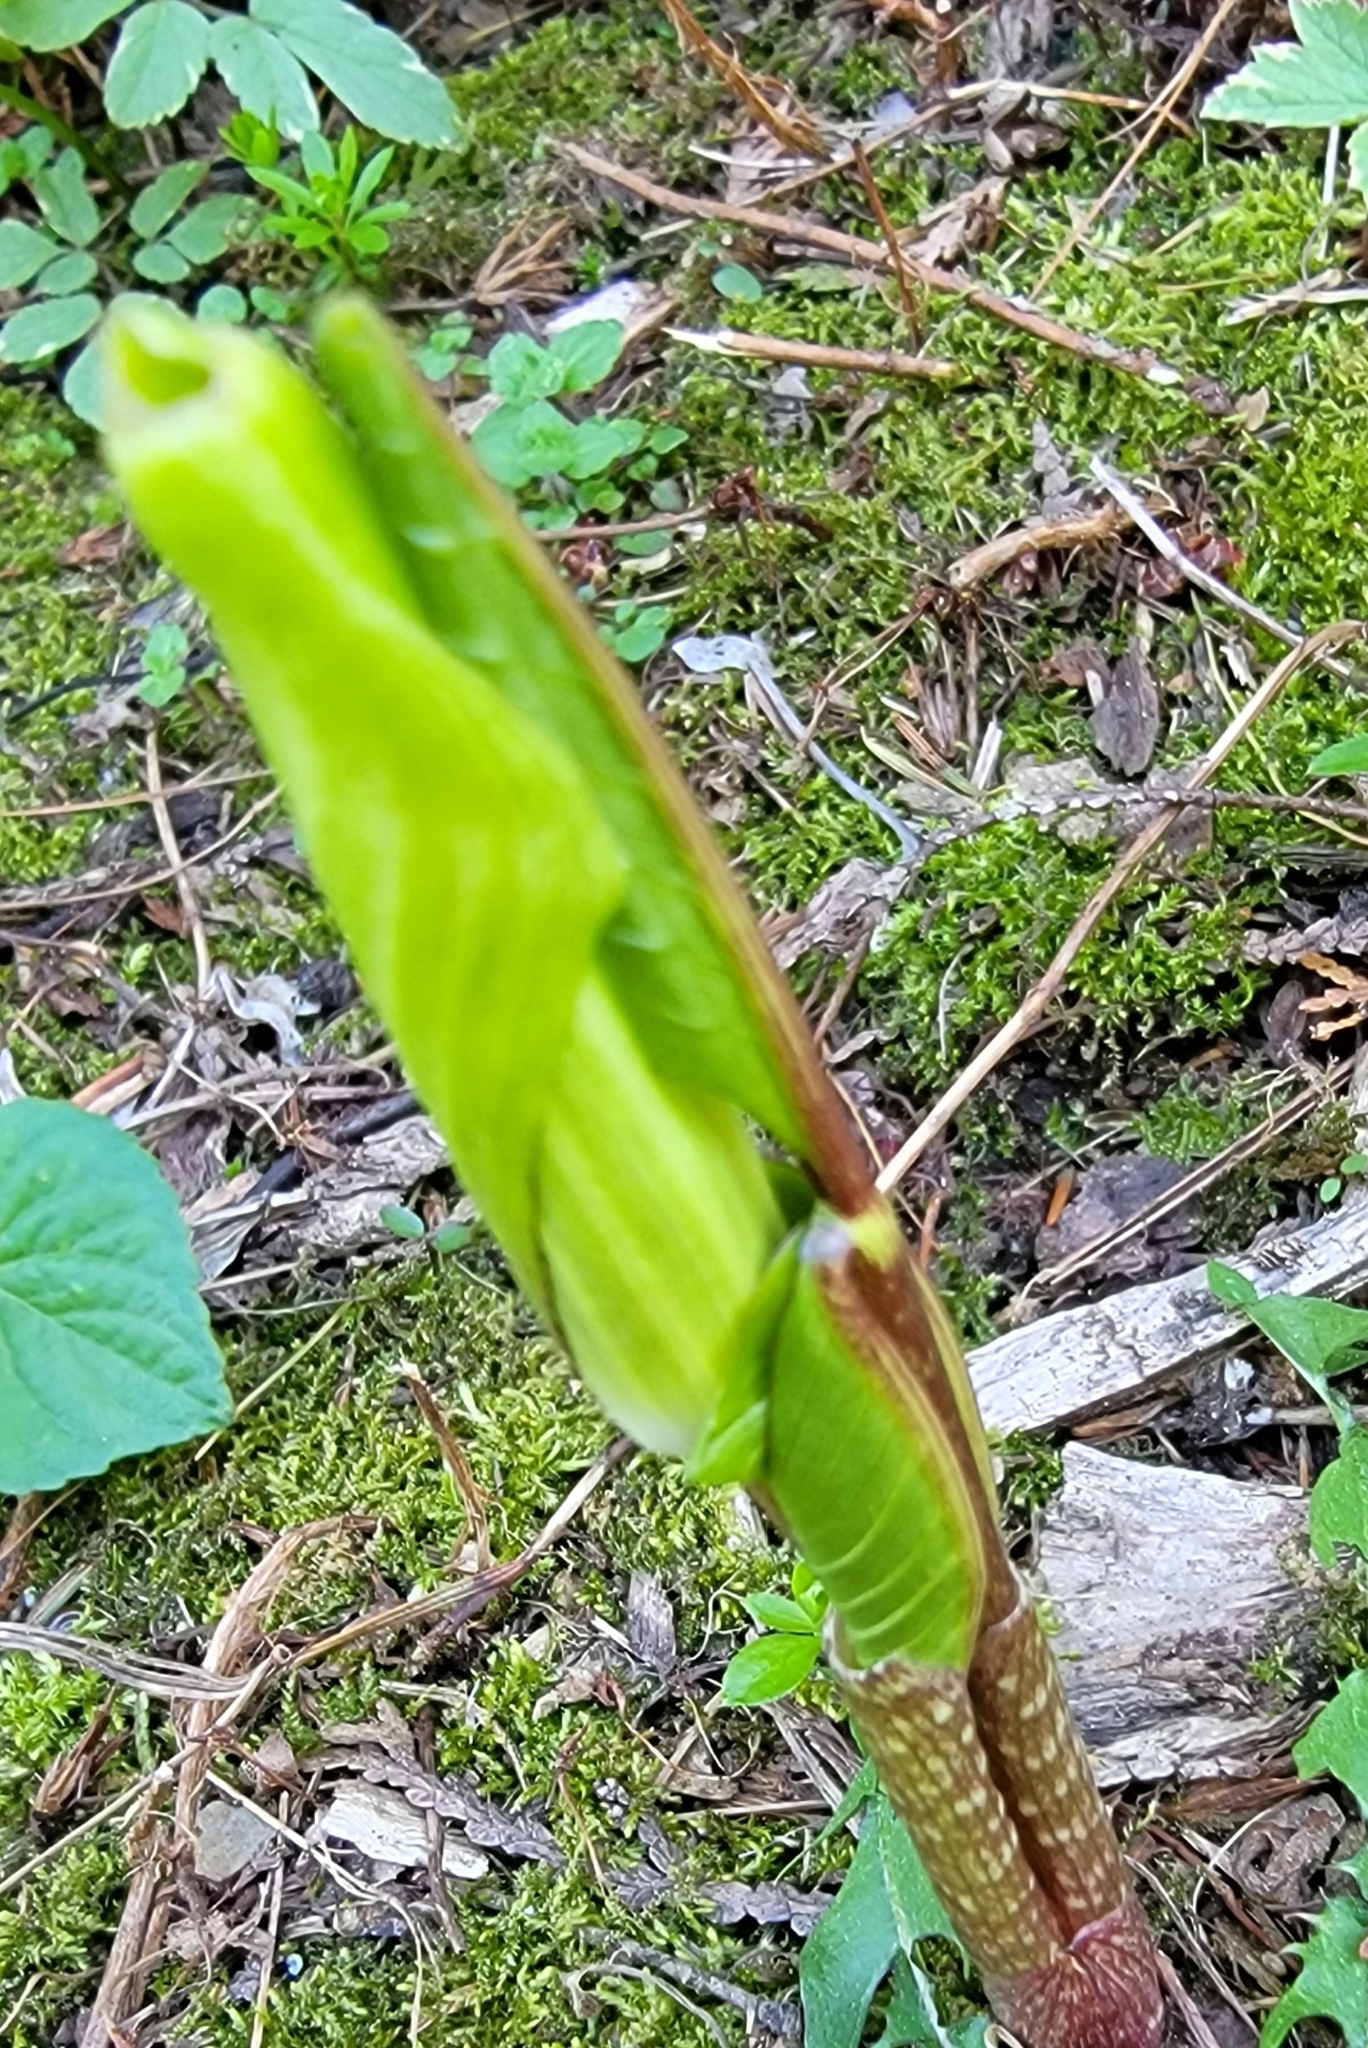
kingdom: Plantae
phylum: Tracheophyta
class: Liliopsida
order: Alismatales
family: Araceae
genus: Arisaema
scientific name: Arisaema triphyllum
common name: Jack-in-the-pulpit
